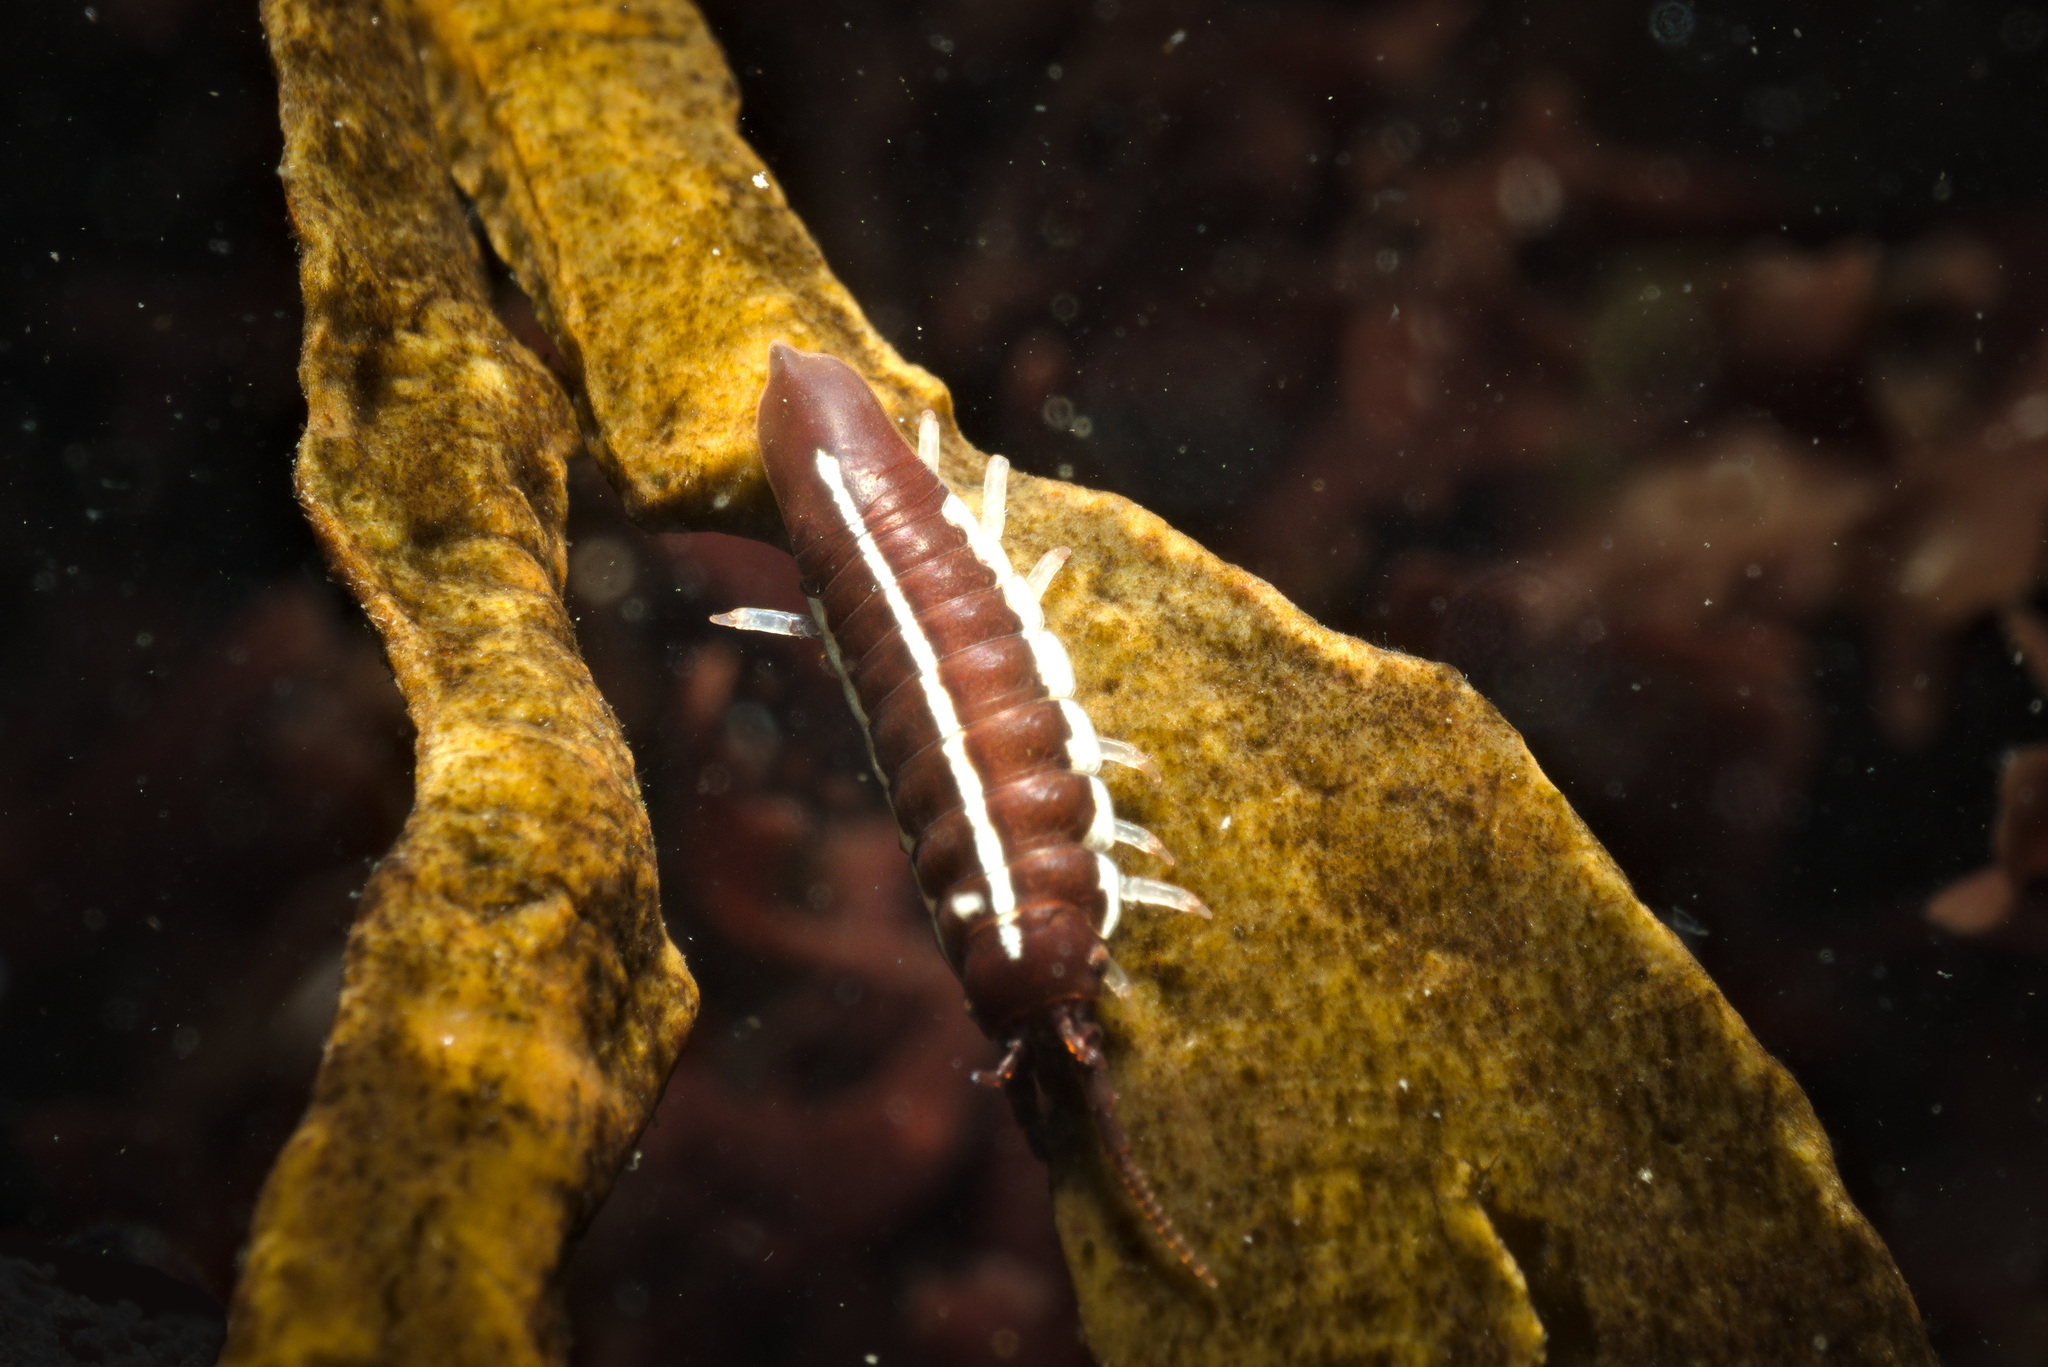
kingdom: Animalia
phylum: Arthropoda
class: Malacostraca
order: Isopoda
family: Idoteidae
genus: Idotea
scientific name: Idotea granulosa
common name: Granular marine isopod
